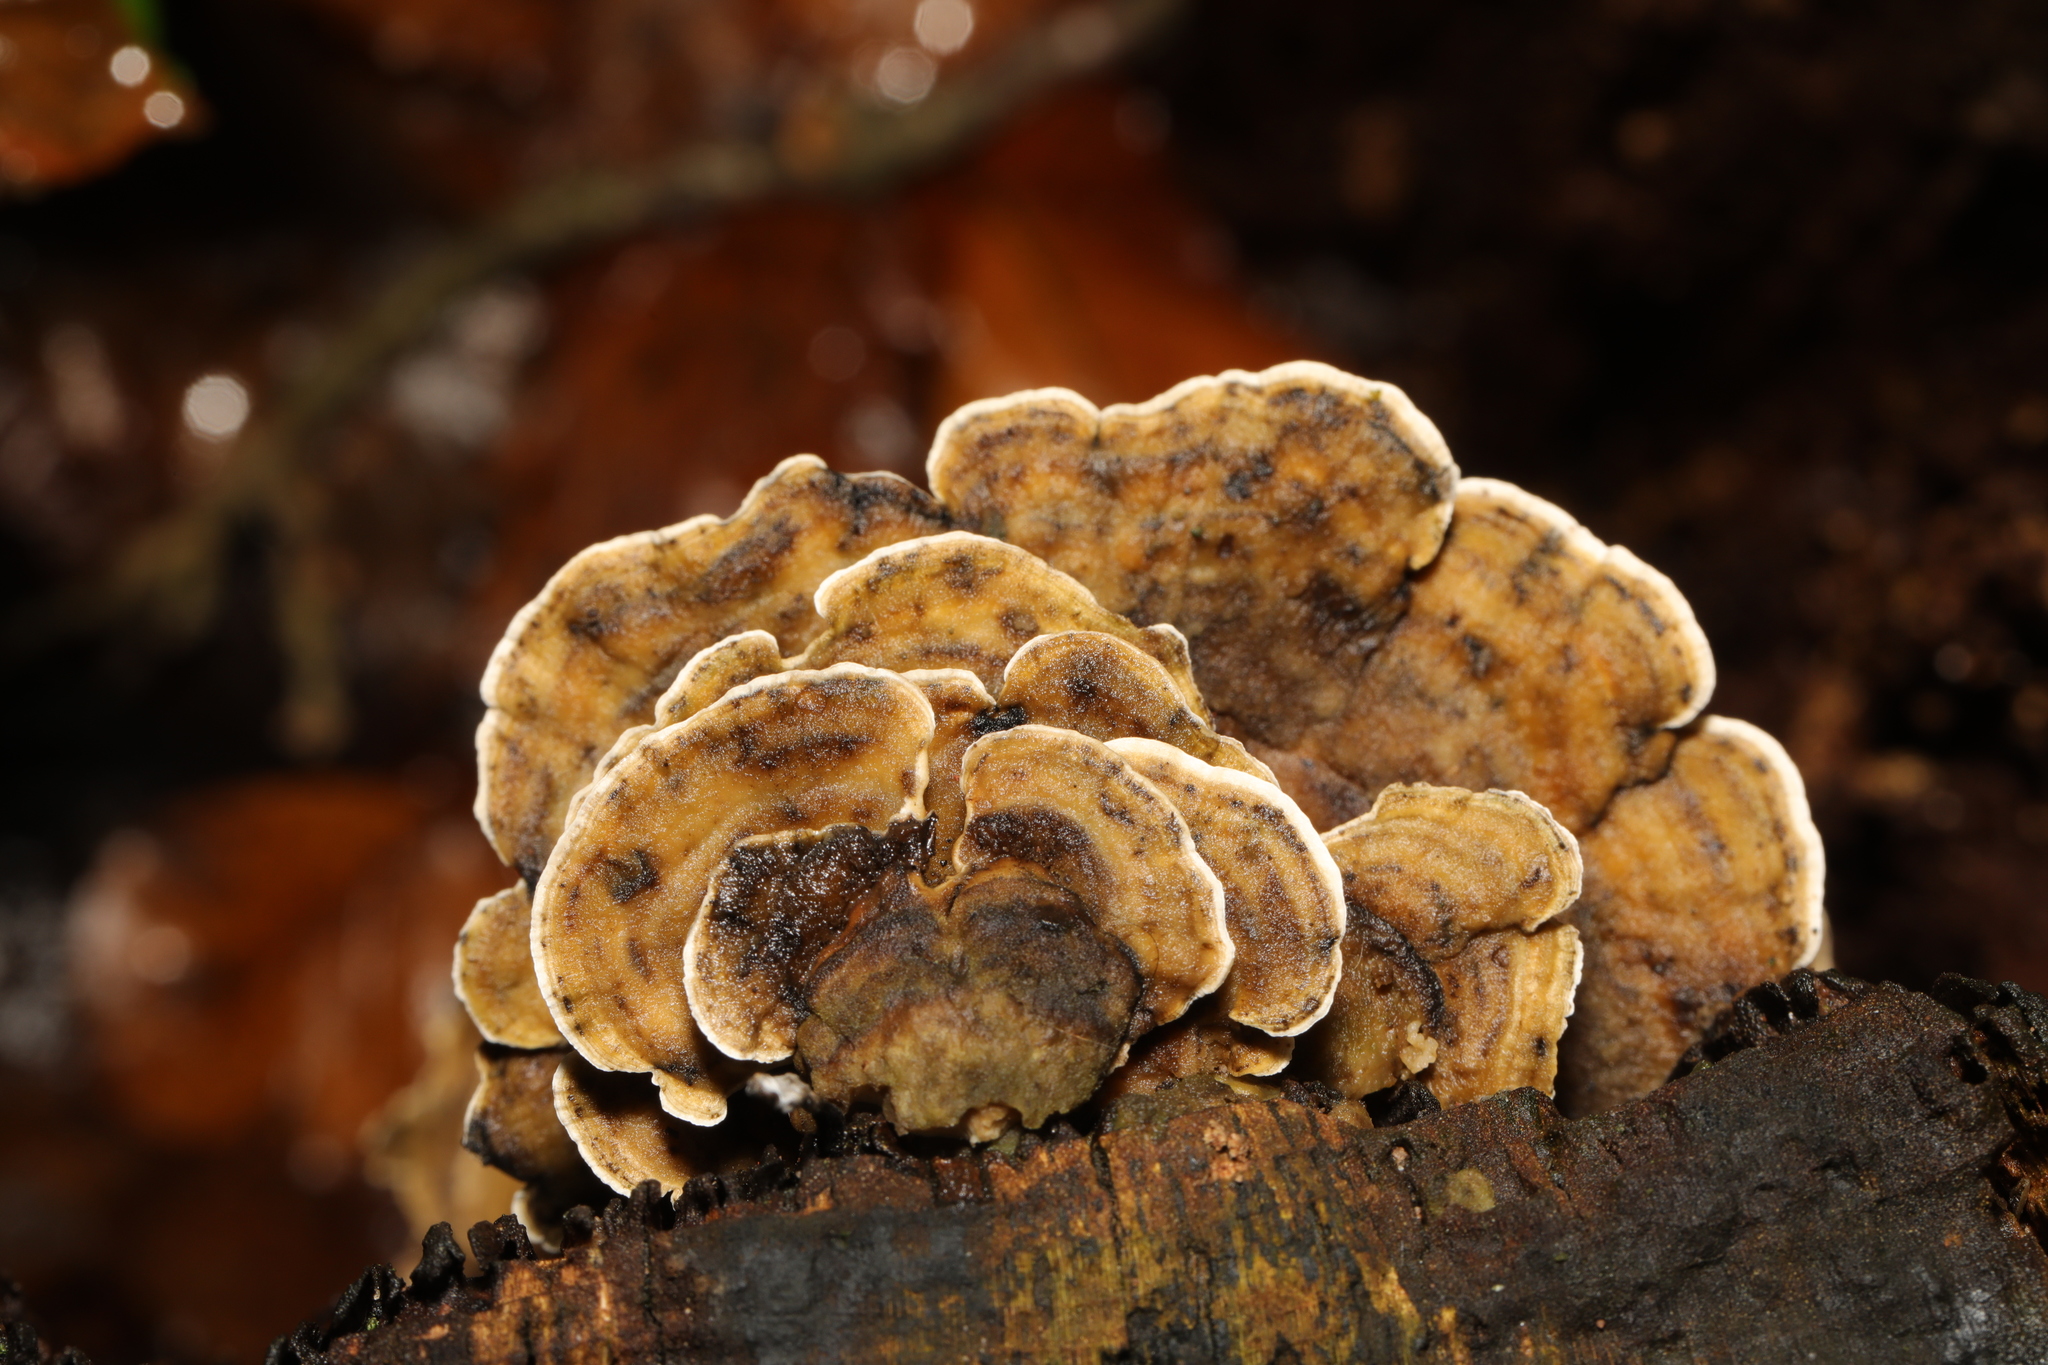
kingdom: Fungi
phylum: Basidiomycota
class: Agaricomycetes
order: Polyporales
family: Polyporaceae
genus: Trametes
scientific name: Trametes versicolor
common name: Turkeytail
